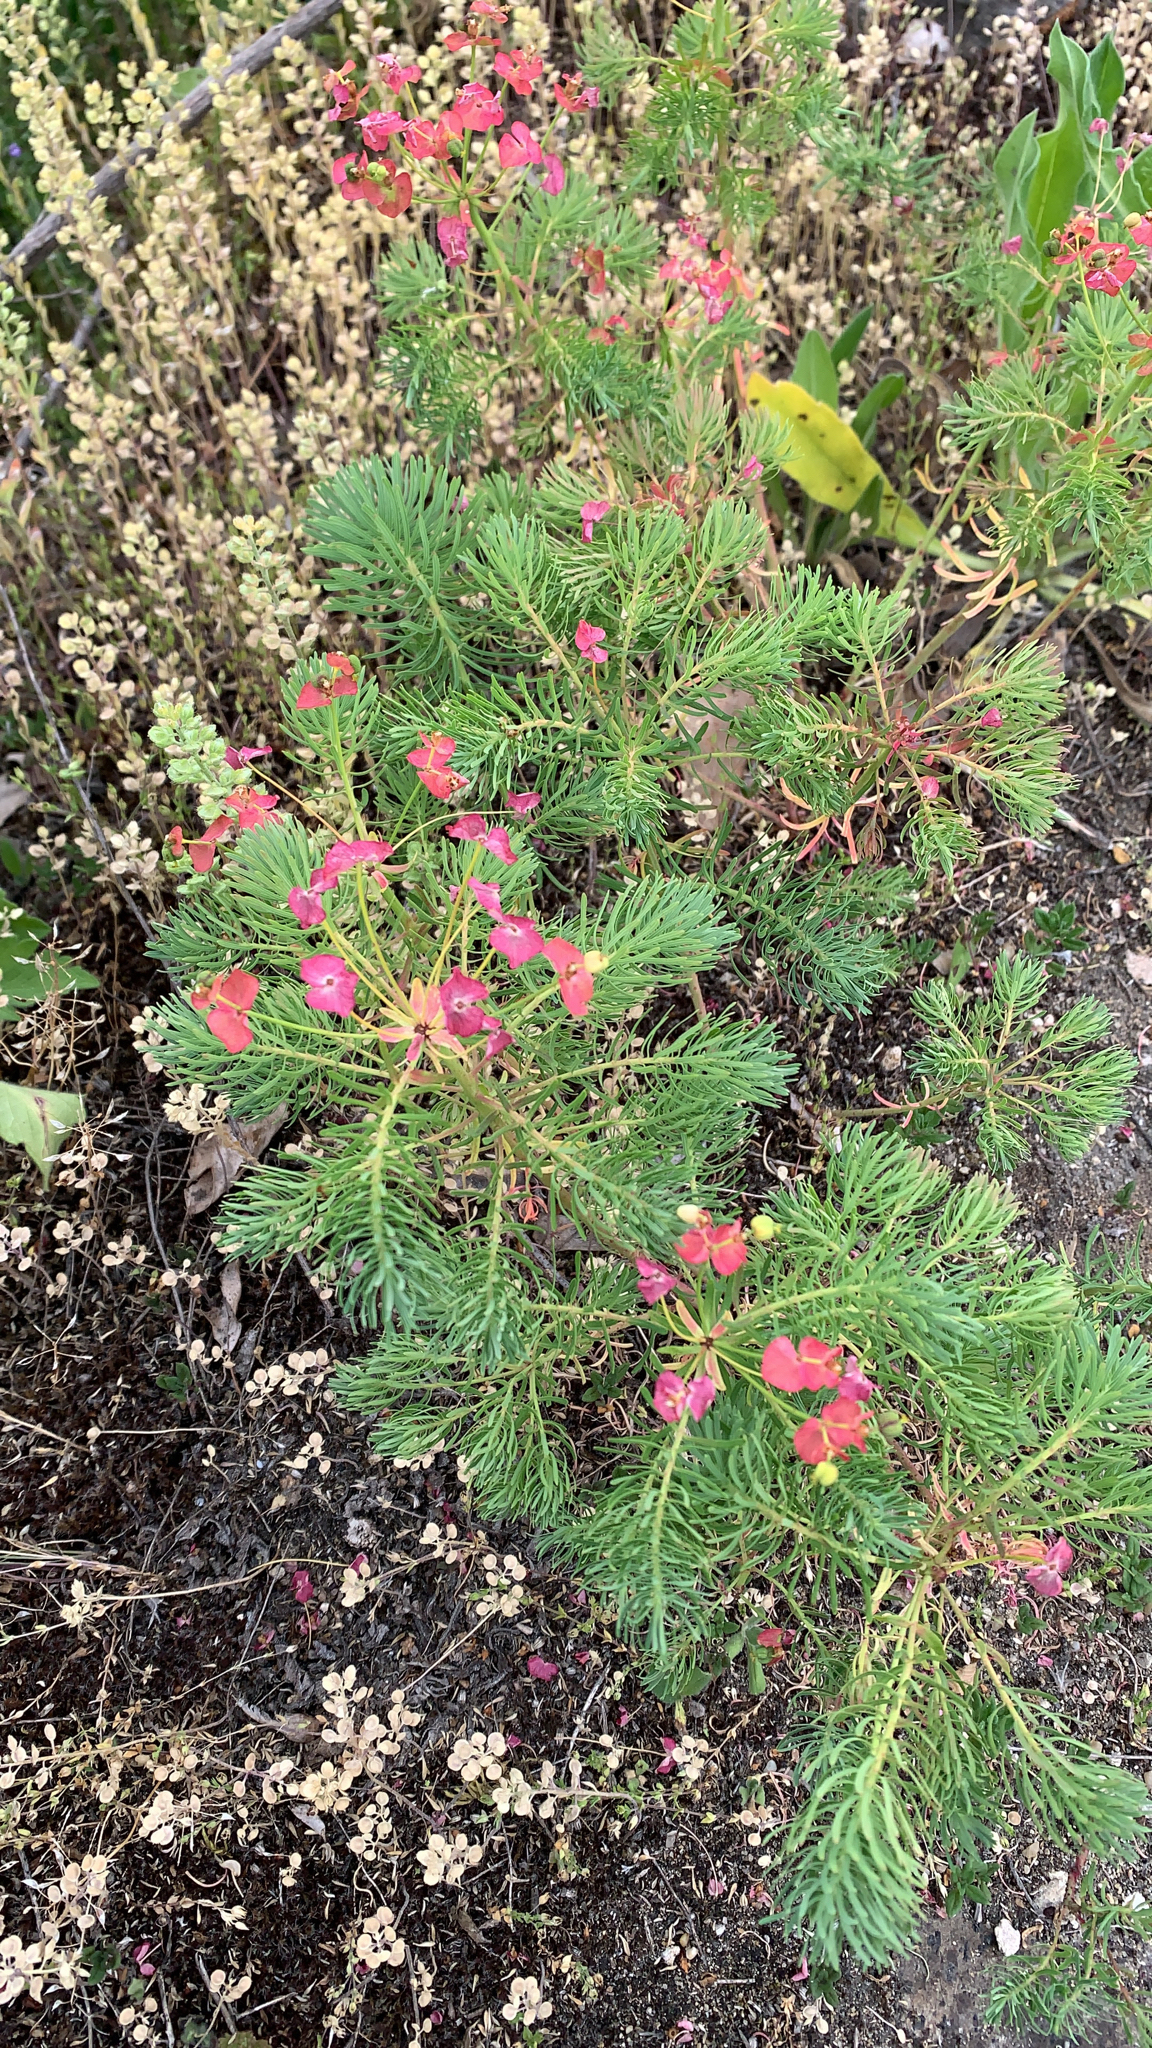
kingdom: Plantae
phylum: Tracheophyta
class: Magnoliopsida
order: Malpighiales
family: Euphorbiaceae
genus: Euphorbia
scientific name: Euphorbia cyparissias
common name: Cypress spurge
